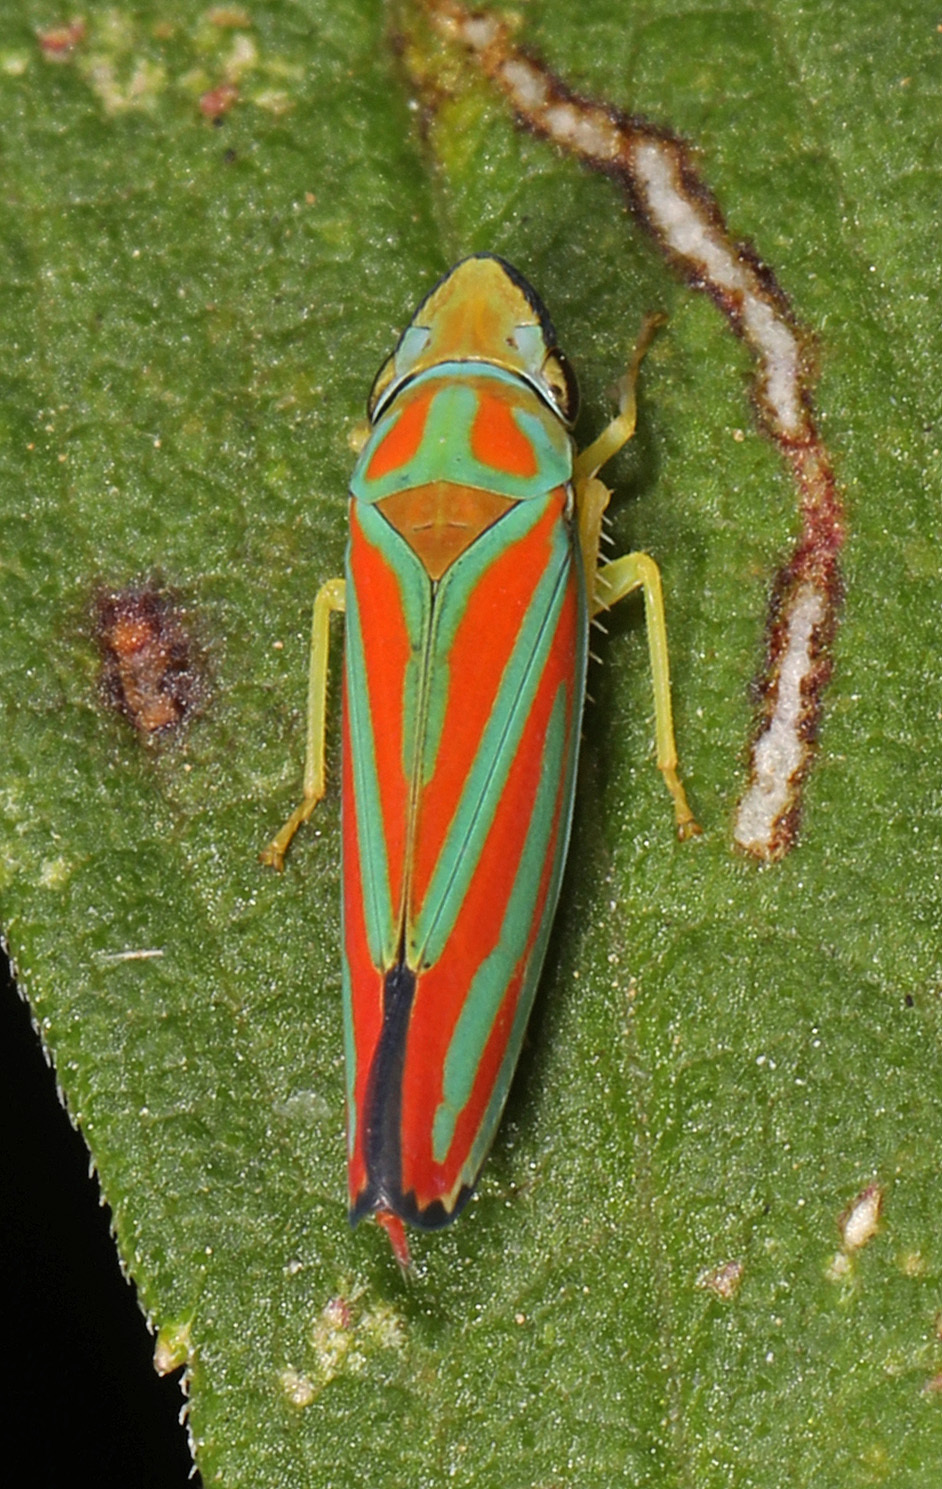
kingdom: Animalia
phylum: Arthropoda
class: Insecta
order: Hemiptera
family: Cicadellidae
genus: Graphocephala
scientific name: Graphocephala coccinea
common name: Candy-striped leafhopper
